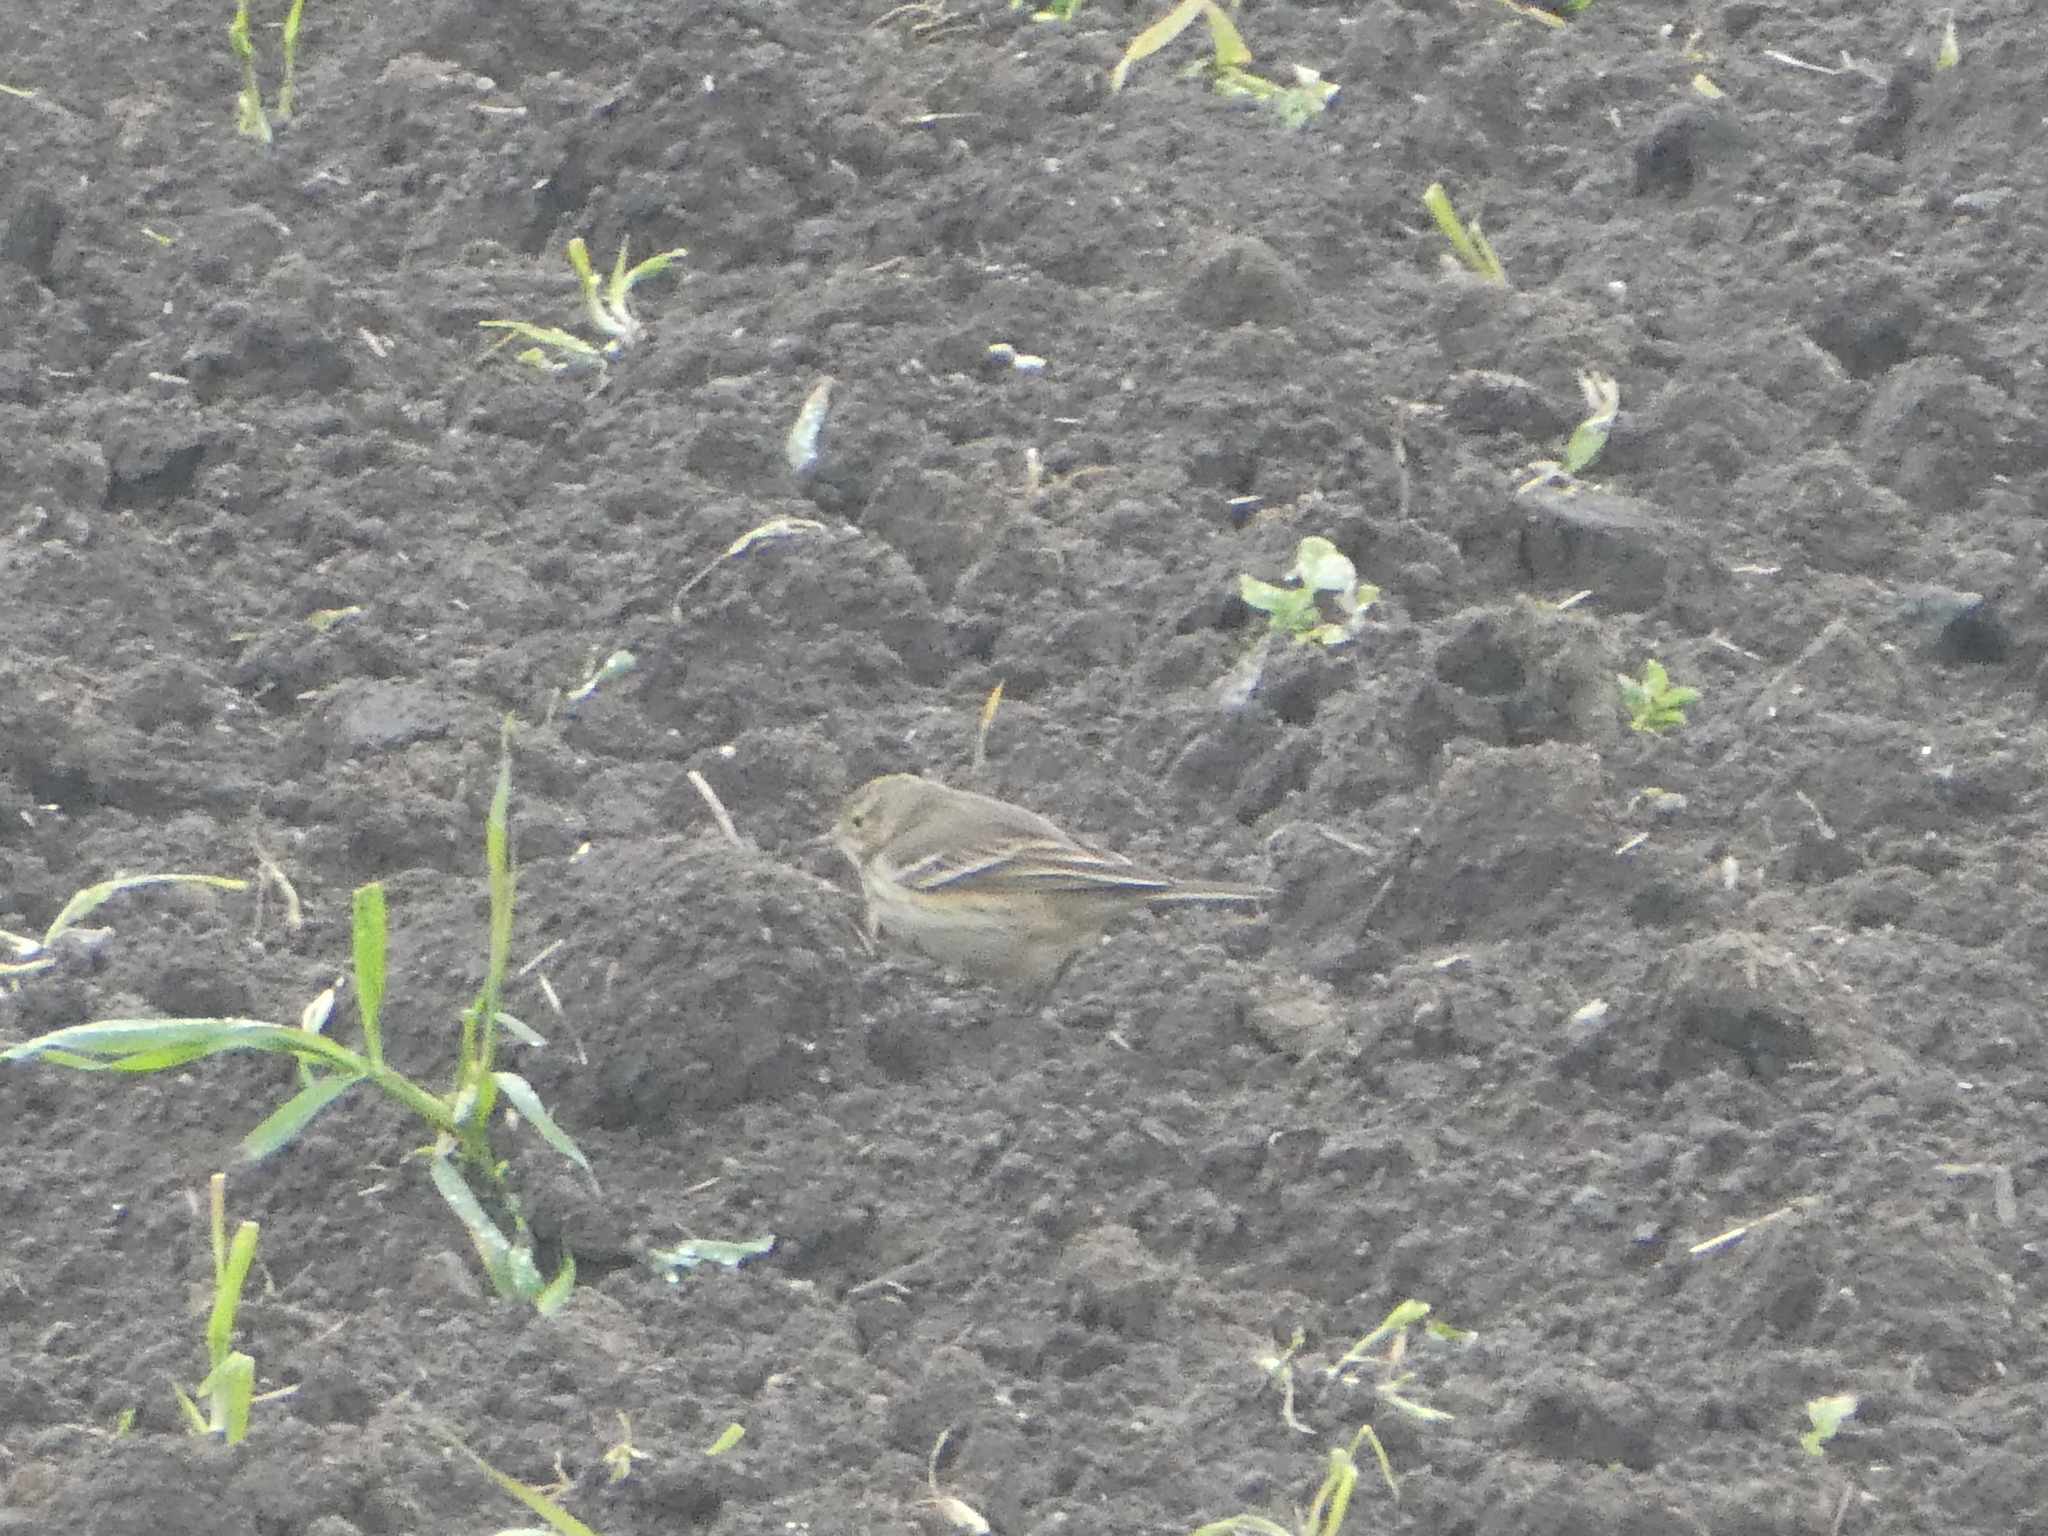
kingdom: Animalia
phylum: Chordata
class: Aves
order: Passeriformes
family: Motacillidae
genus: Anthus
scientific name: Anthus rubescens
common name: Buff-bellied pipit
